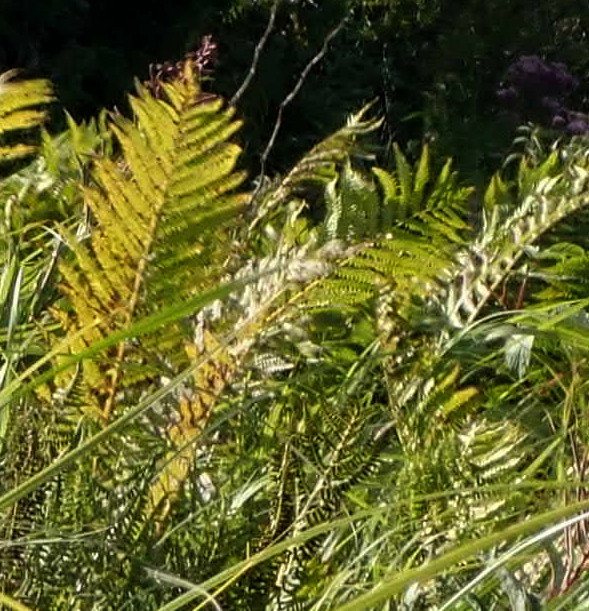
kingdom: Plantae
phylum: Tracheophyta
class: Polypodiopsida
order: Polypodiales
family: Onocleaceae
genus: Matteuccia
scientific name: Matteuccia struthiopteris
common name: Ostrich fern
